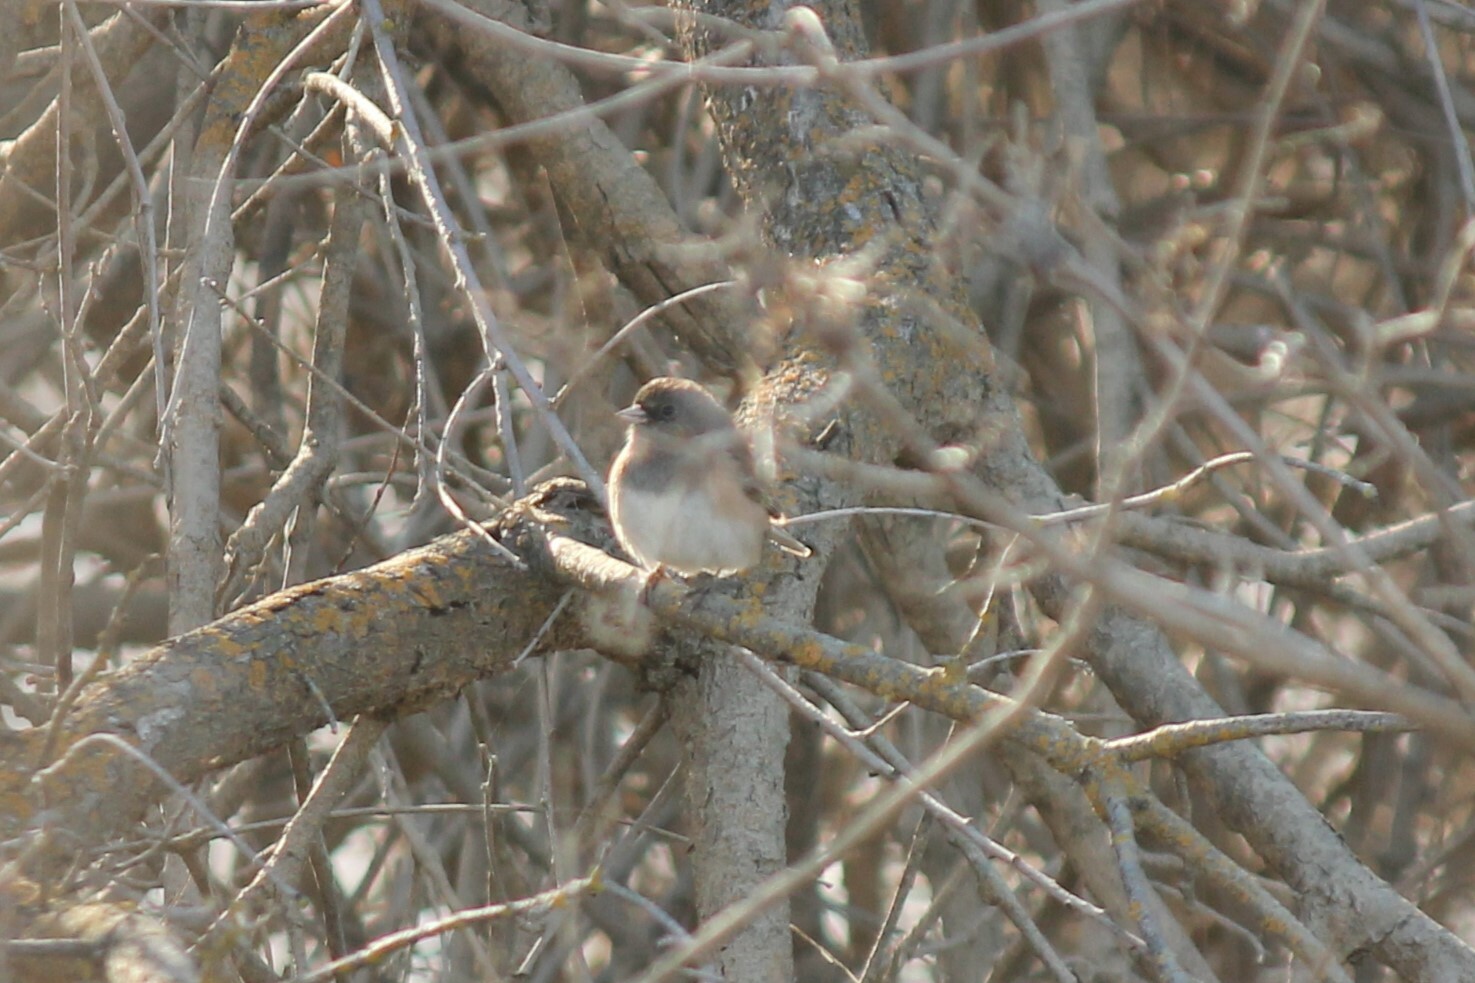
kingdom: Animalia
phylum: Chordata
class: Aves
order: Passeriformes
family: Passerellidae
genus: Junco
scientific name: Junco hyemalis
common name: Dark-eyed junco
